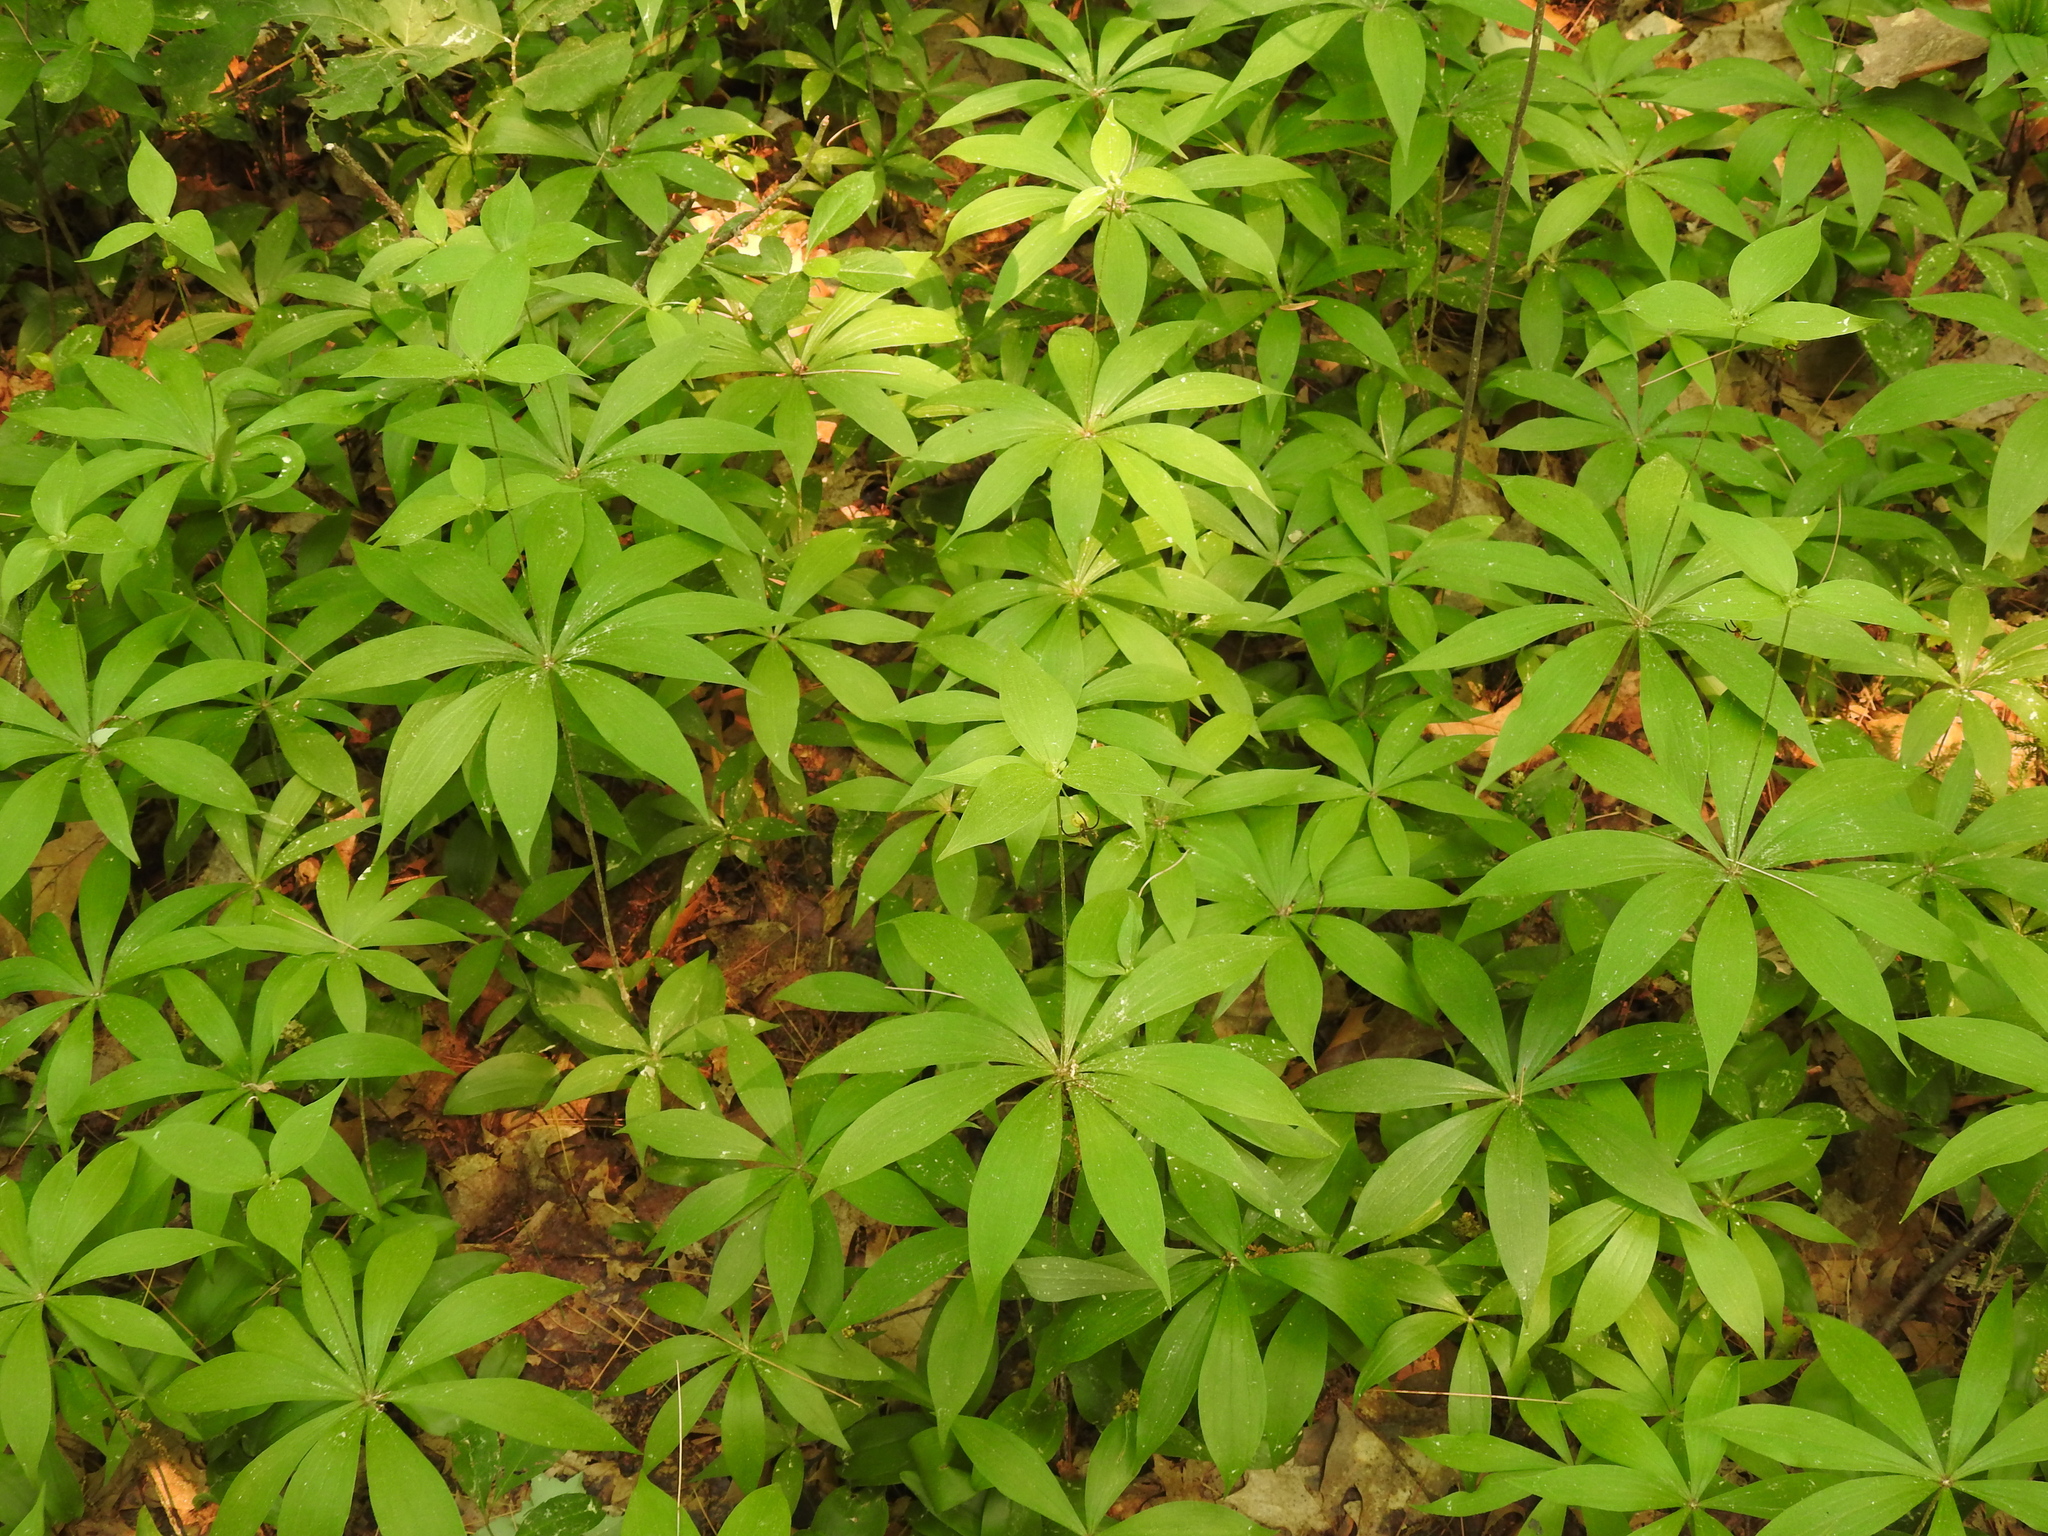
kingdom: Plantae
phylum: Tracheophyta
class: Liliopsida
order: Liliales
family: Liliaceae
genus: Medeola
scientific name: Medeola virginiana
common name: Indian cucumber-root
